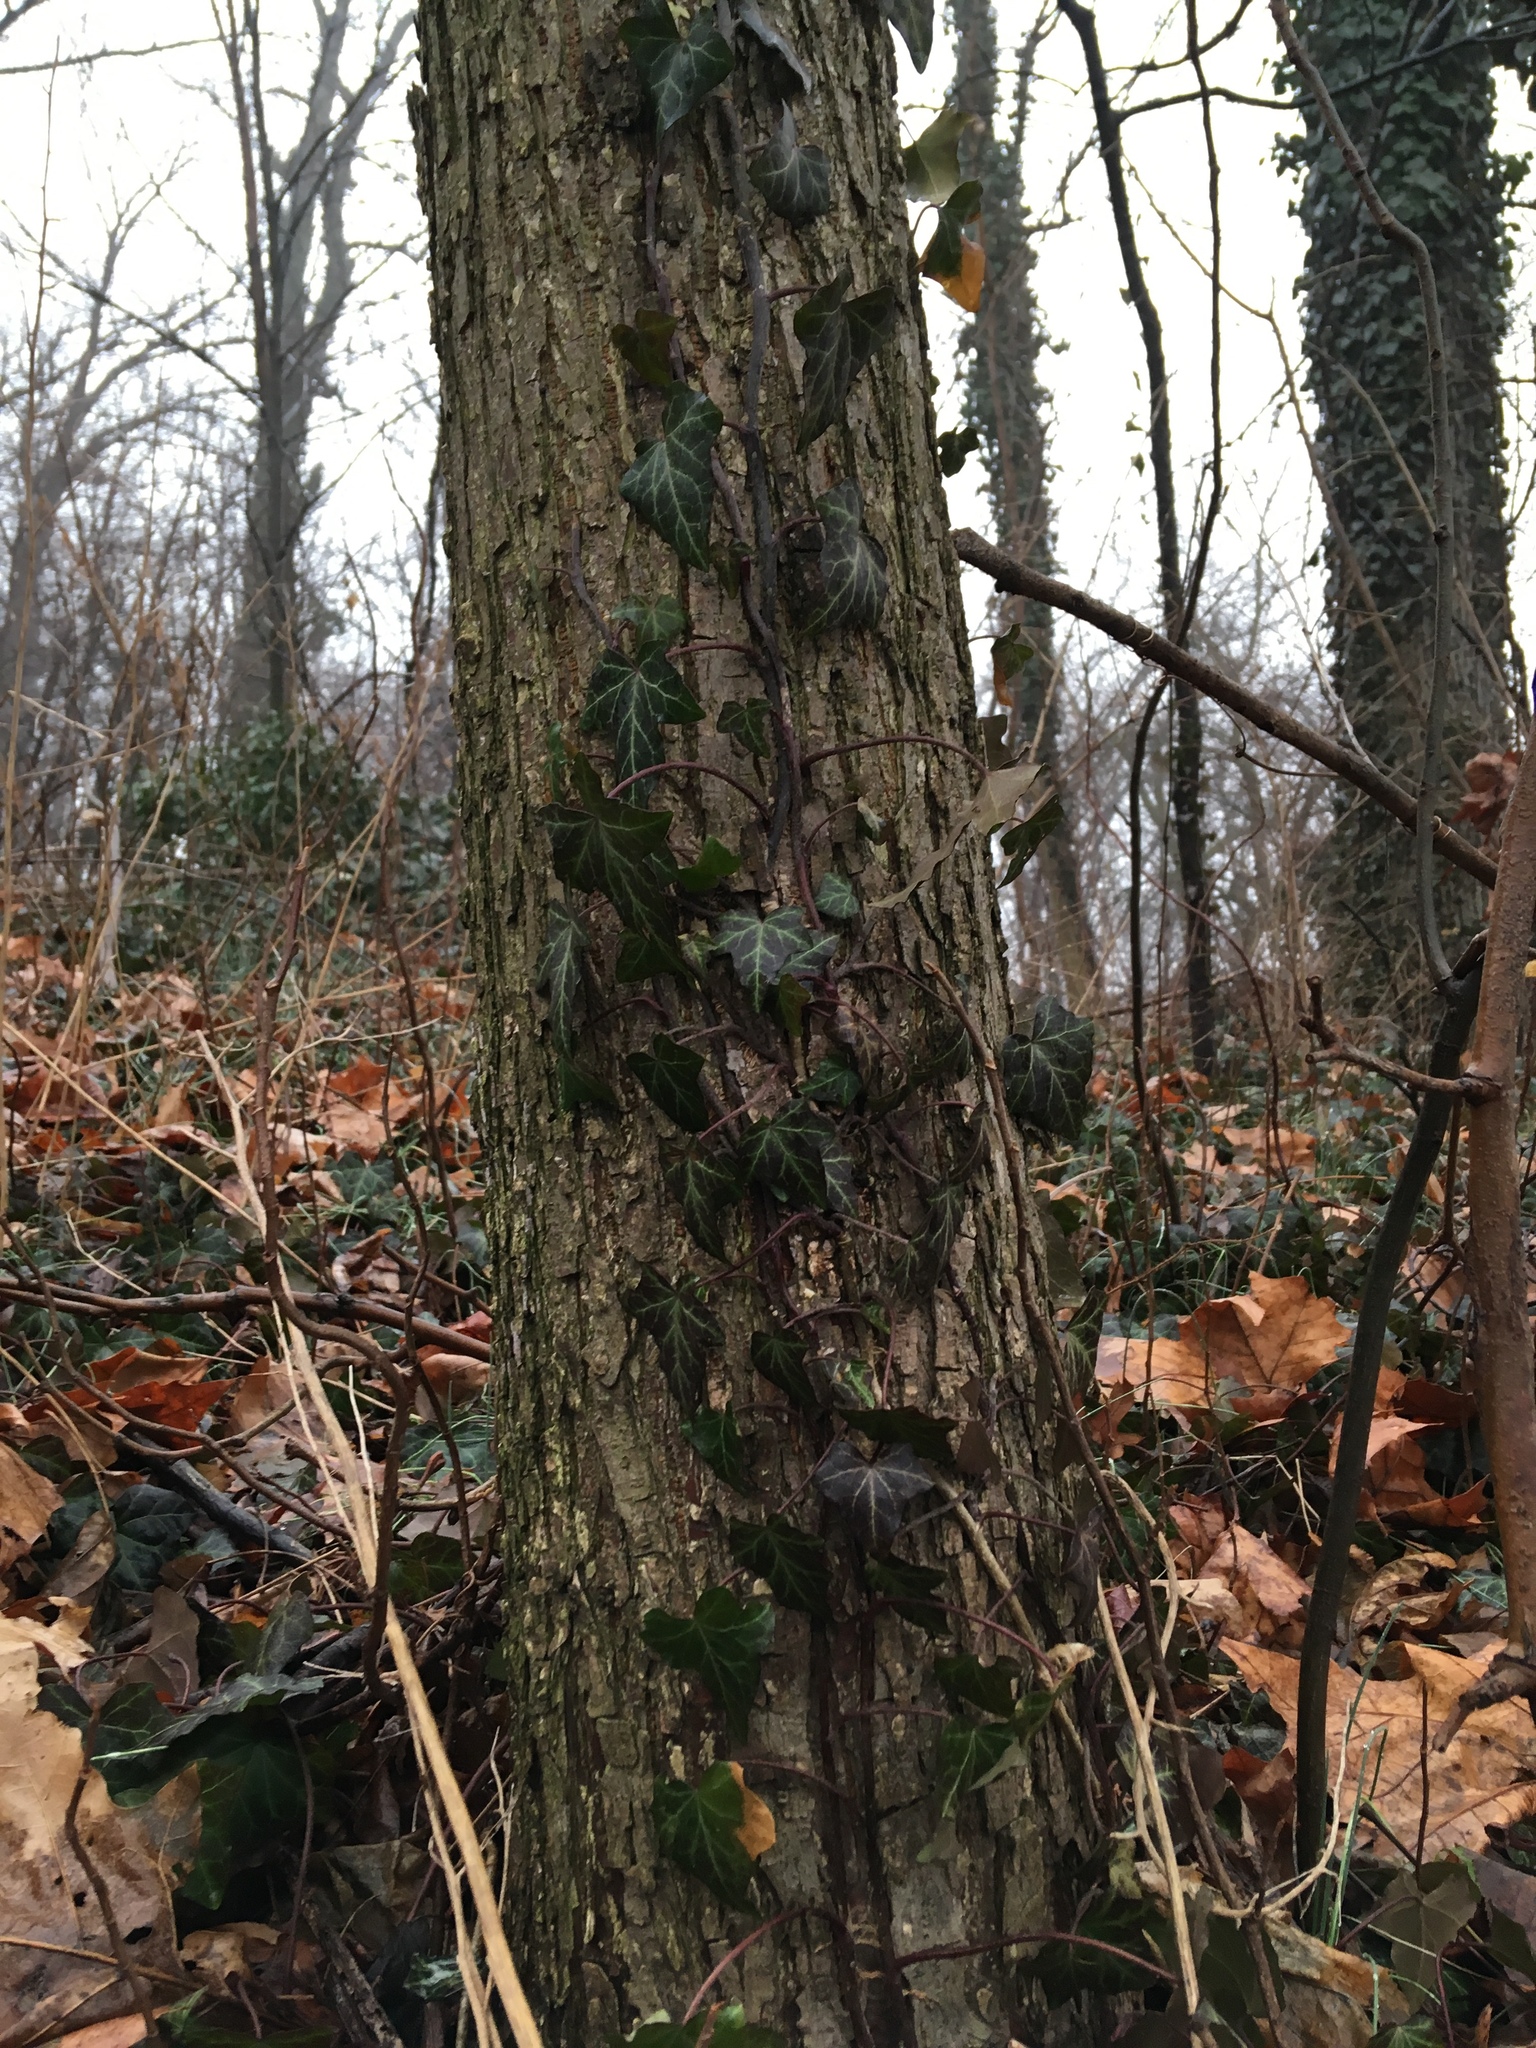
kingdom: Plantae
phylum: Tracheophyta
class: Magnoliopsida
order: Apiales
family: Araliaceae
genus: Hedera
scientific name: Hedera helix
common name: Ivy
